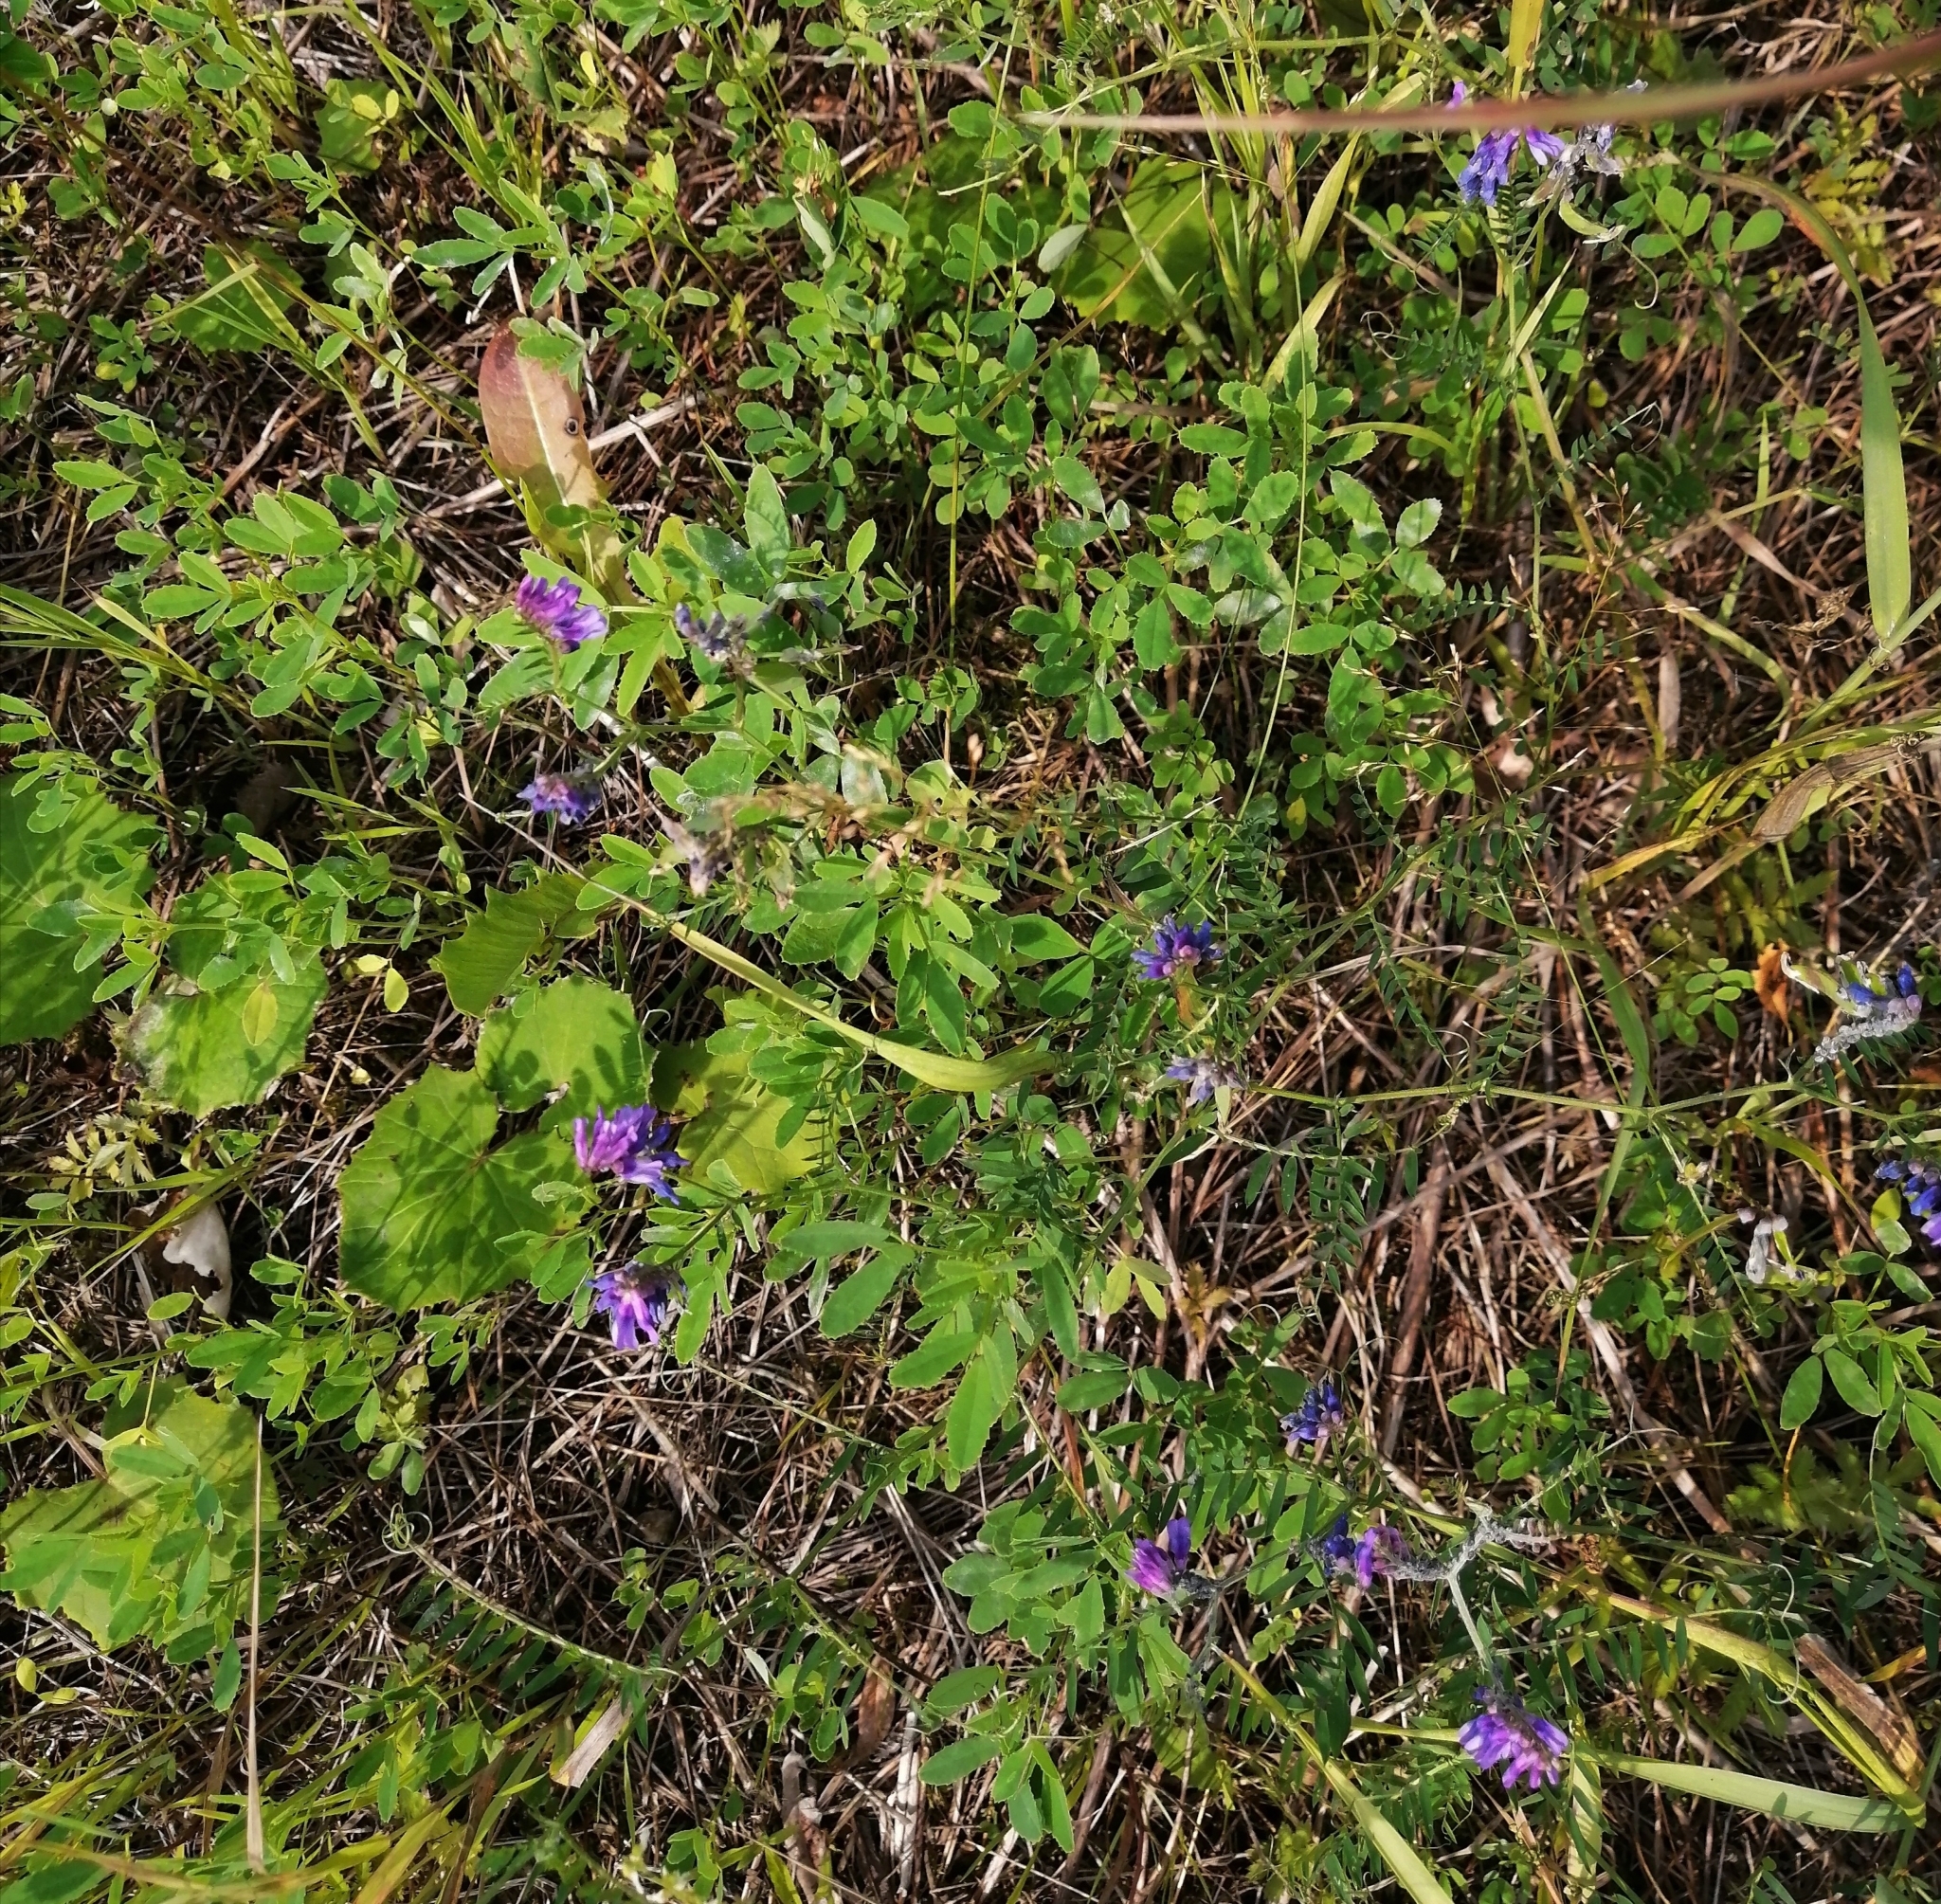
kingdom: Plantae
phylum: Tracheophyta
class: Magnoliopsida
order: Fabales
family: Fabaceae
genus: Vicia
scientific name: Vicia cracca
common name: Bird vetch
